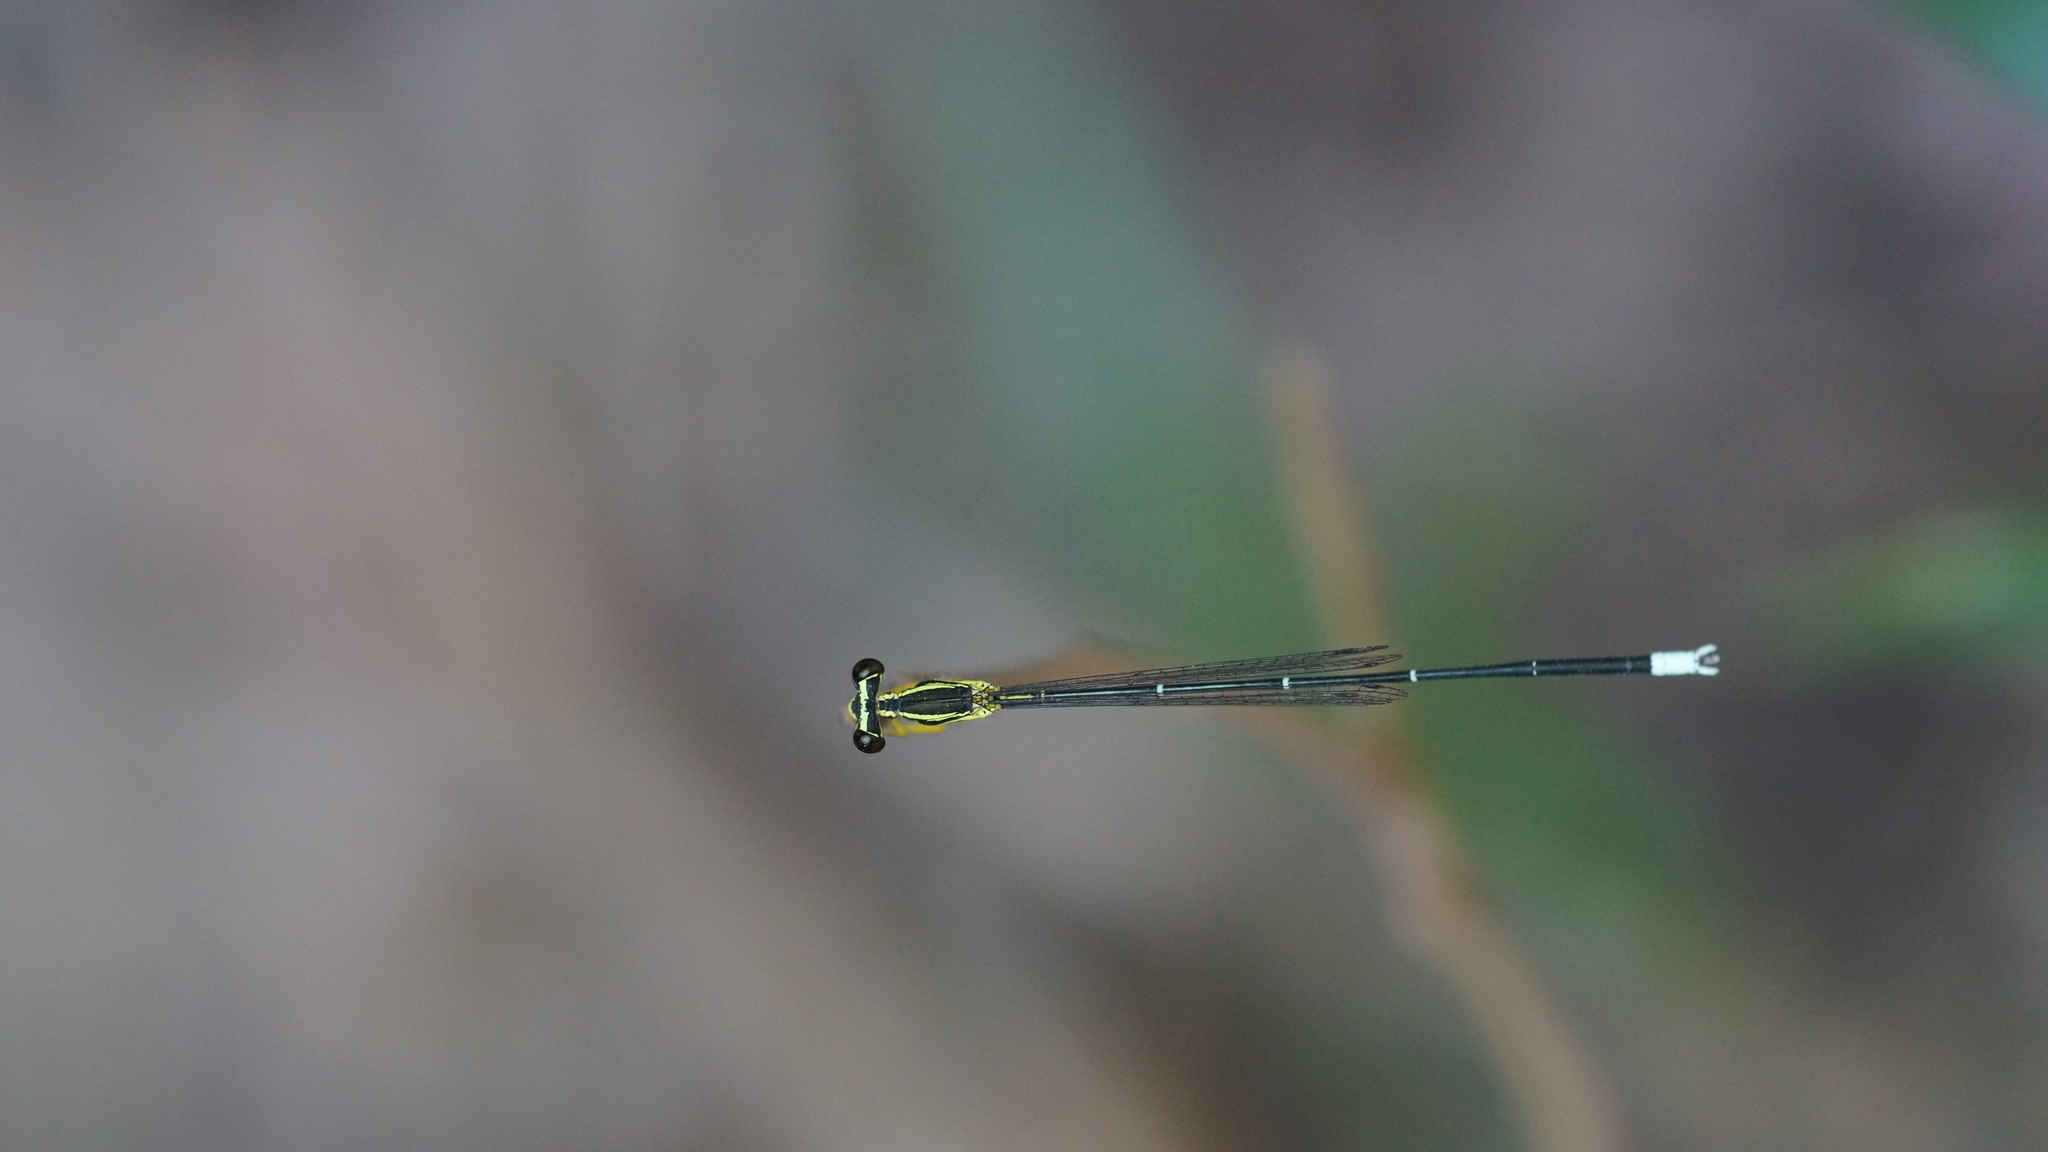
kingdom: Animalia
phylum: Arthropoda
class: Insecta
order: Odonata
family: Platycnemididae
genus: Copera
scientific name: Copera marginipes
